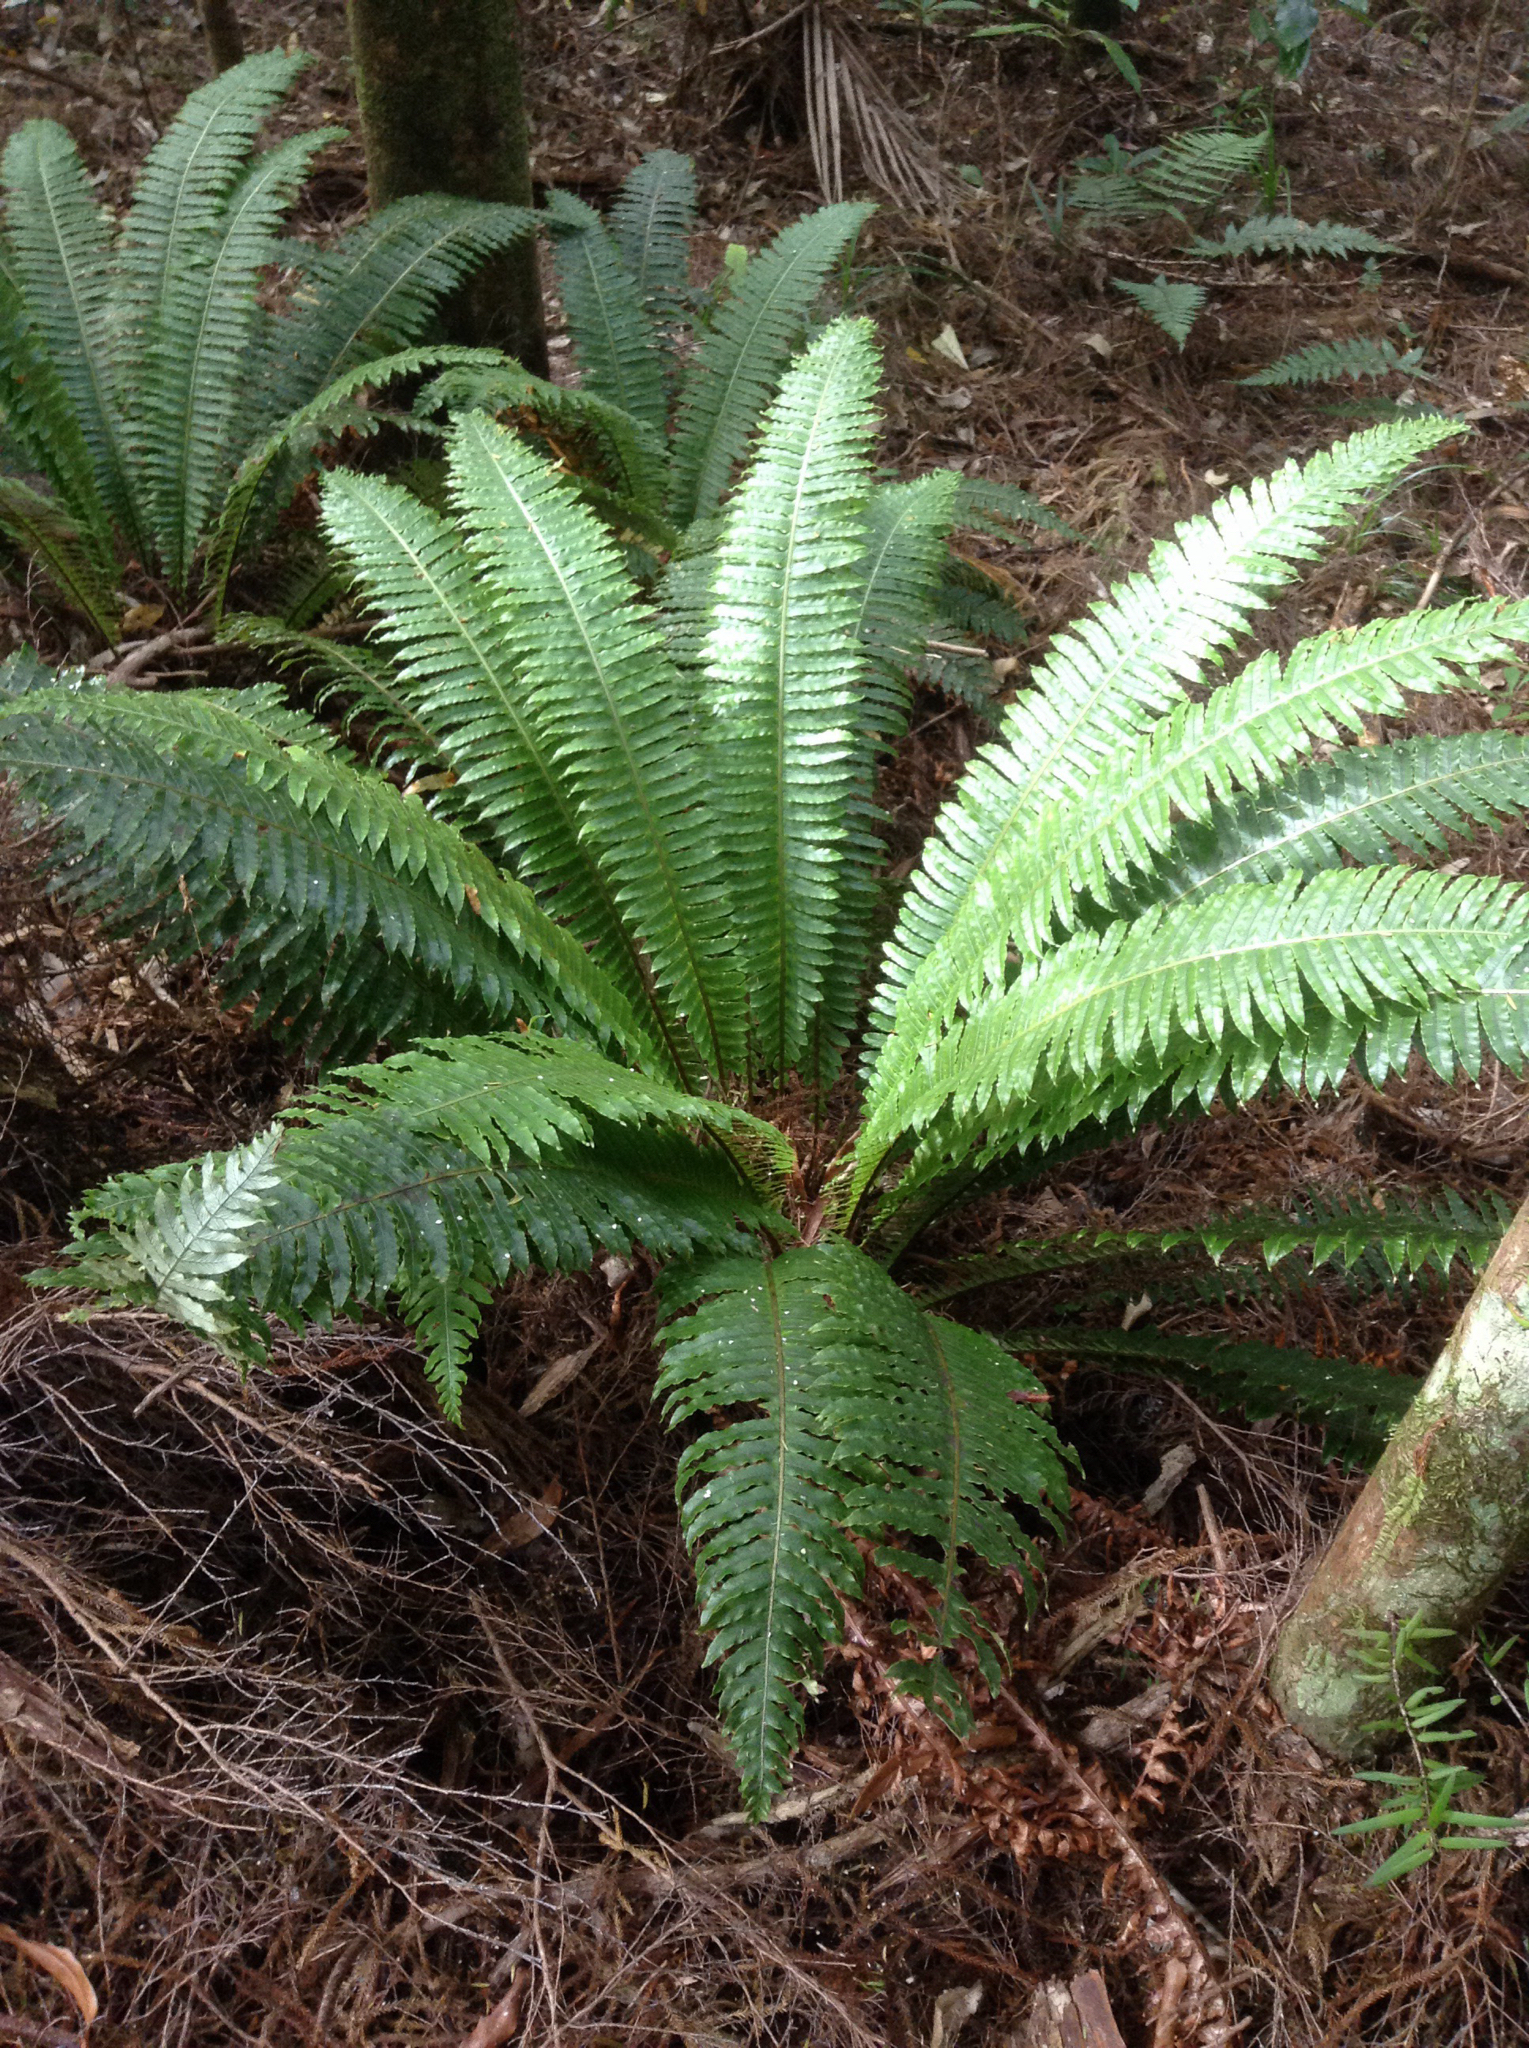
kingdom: Plantae
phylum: Tracheophyta
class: Polypodiopsida
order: Polypodiales
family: Blechnaceae
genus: Lomaria
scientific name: Lomaria discolor
